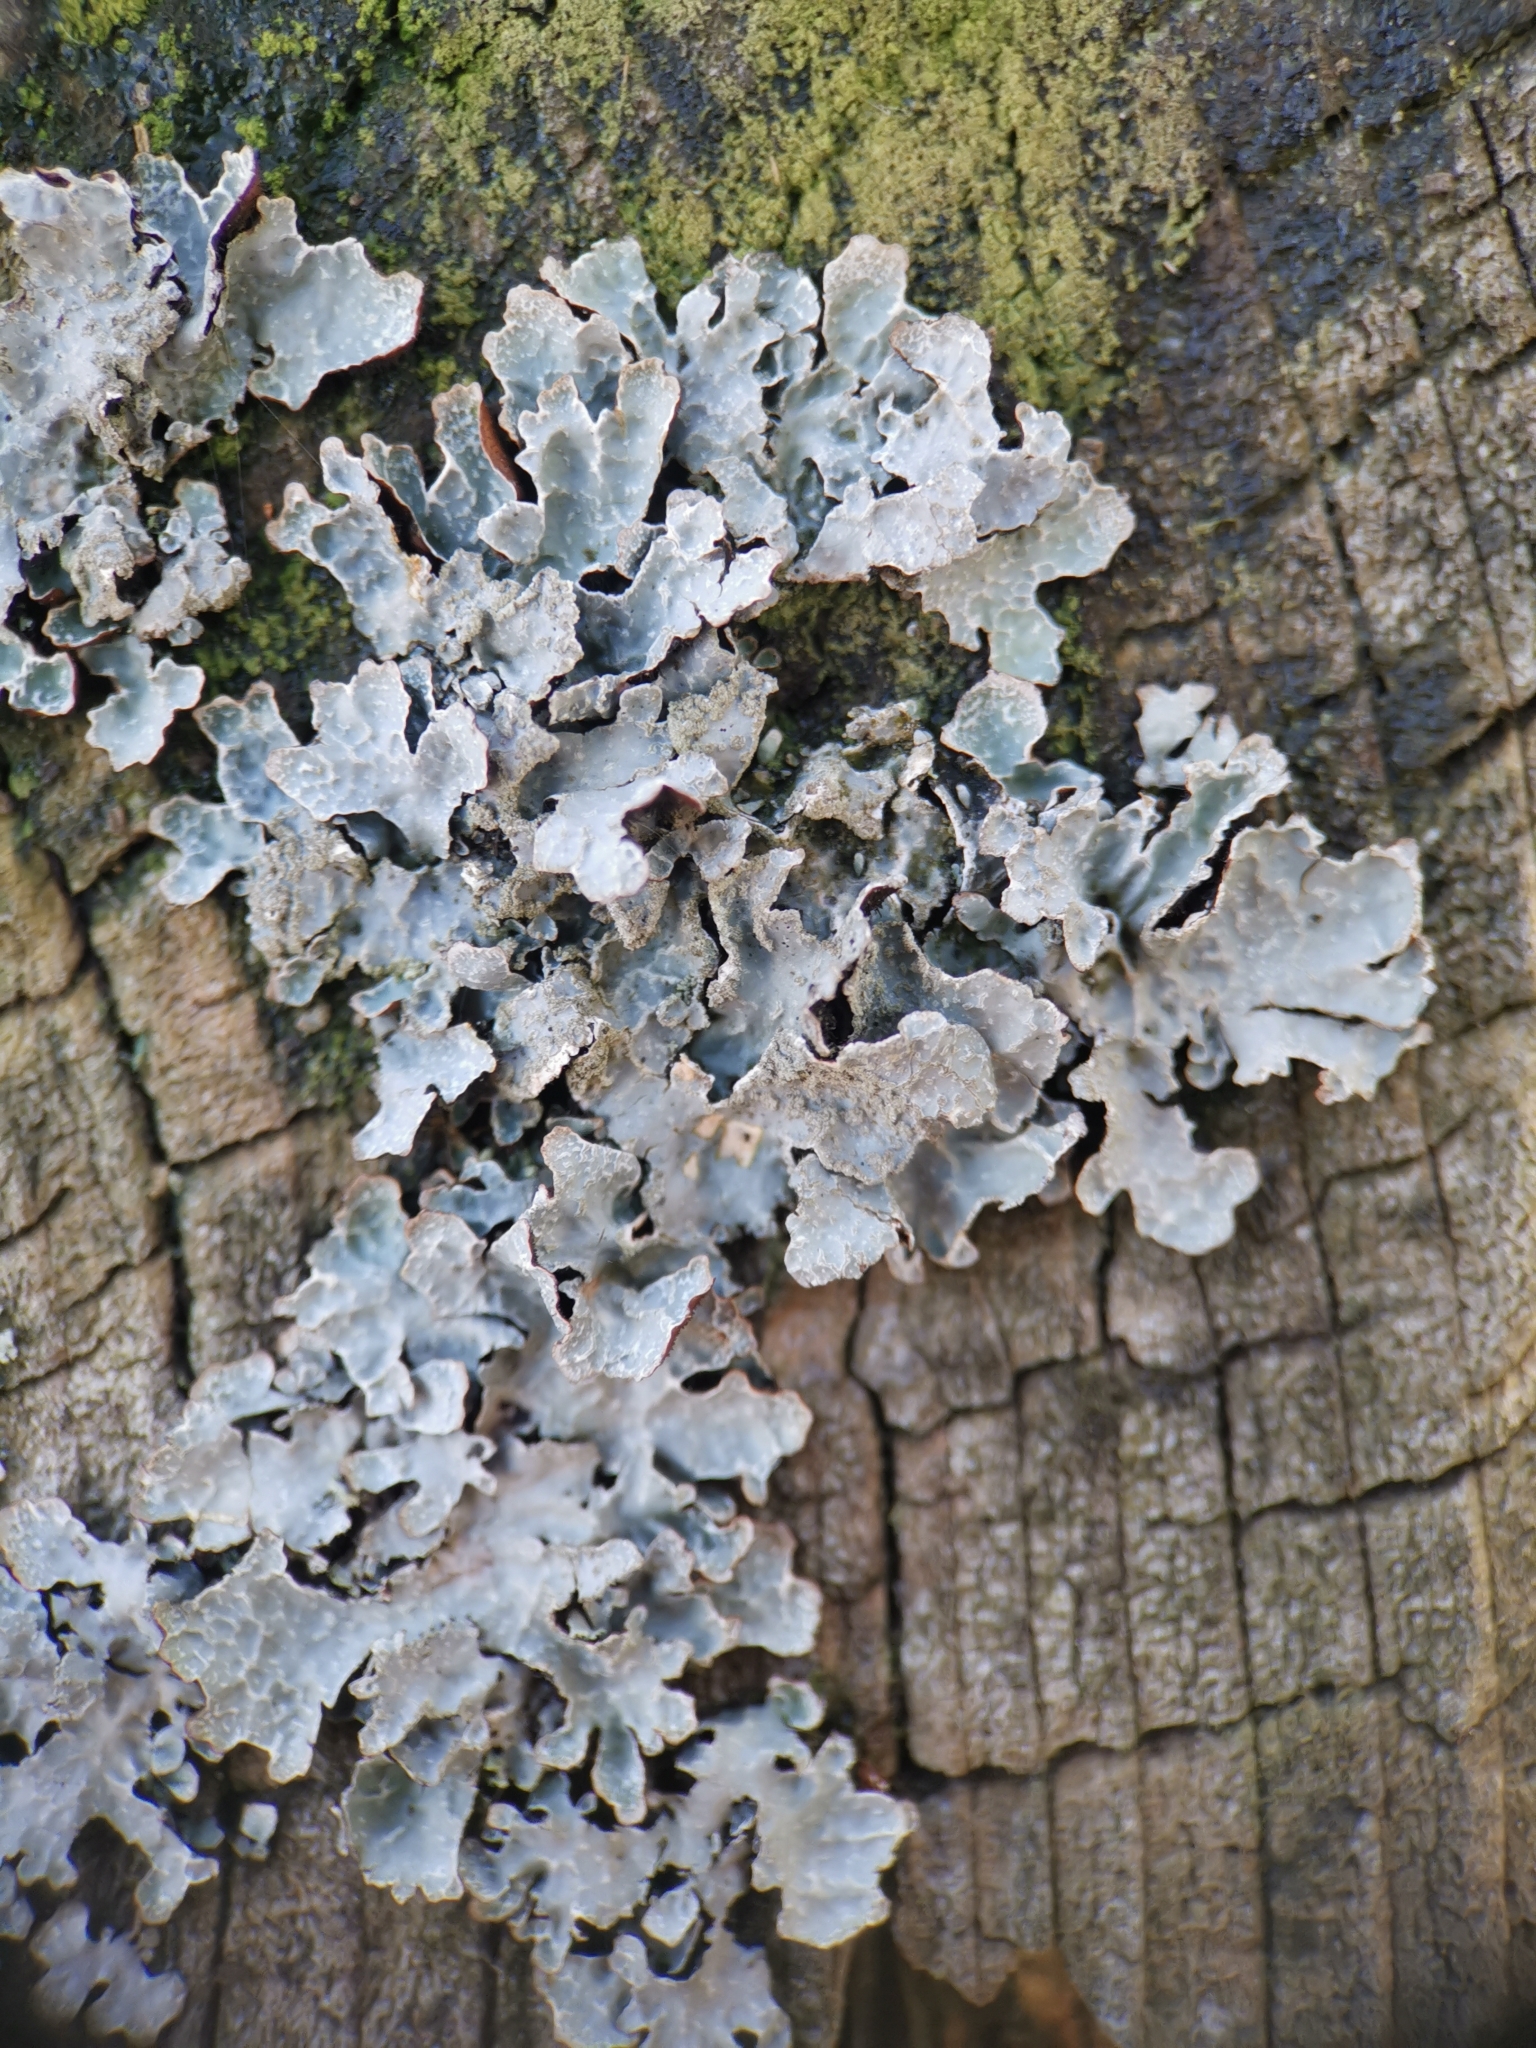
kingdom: Fungi
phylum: Ascomycota
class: Lecanoromycetes
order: Lecanorales
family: Parmeliaceae
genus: Parmelia
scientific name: Parmelia sulcata
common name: Netted shield lichen
